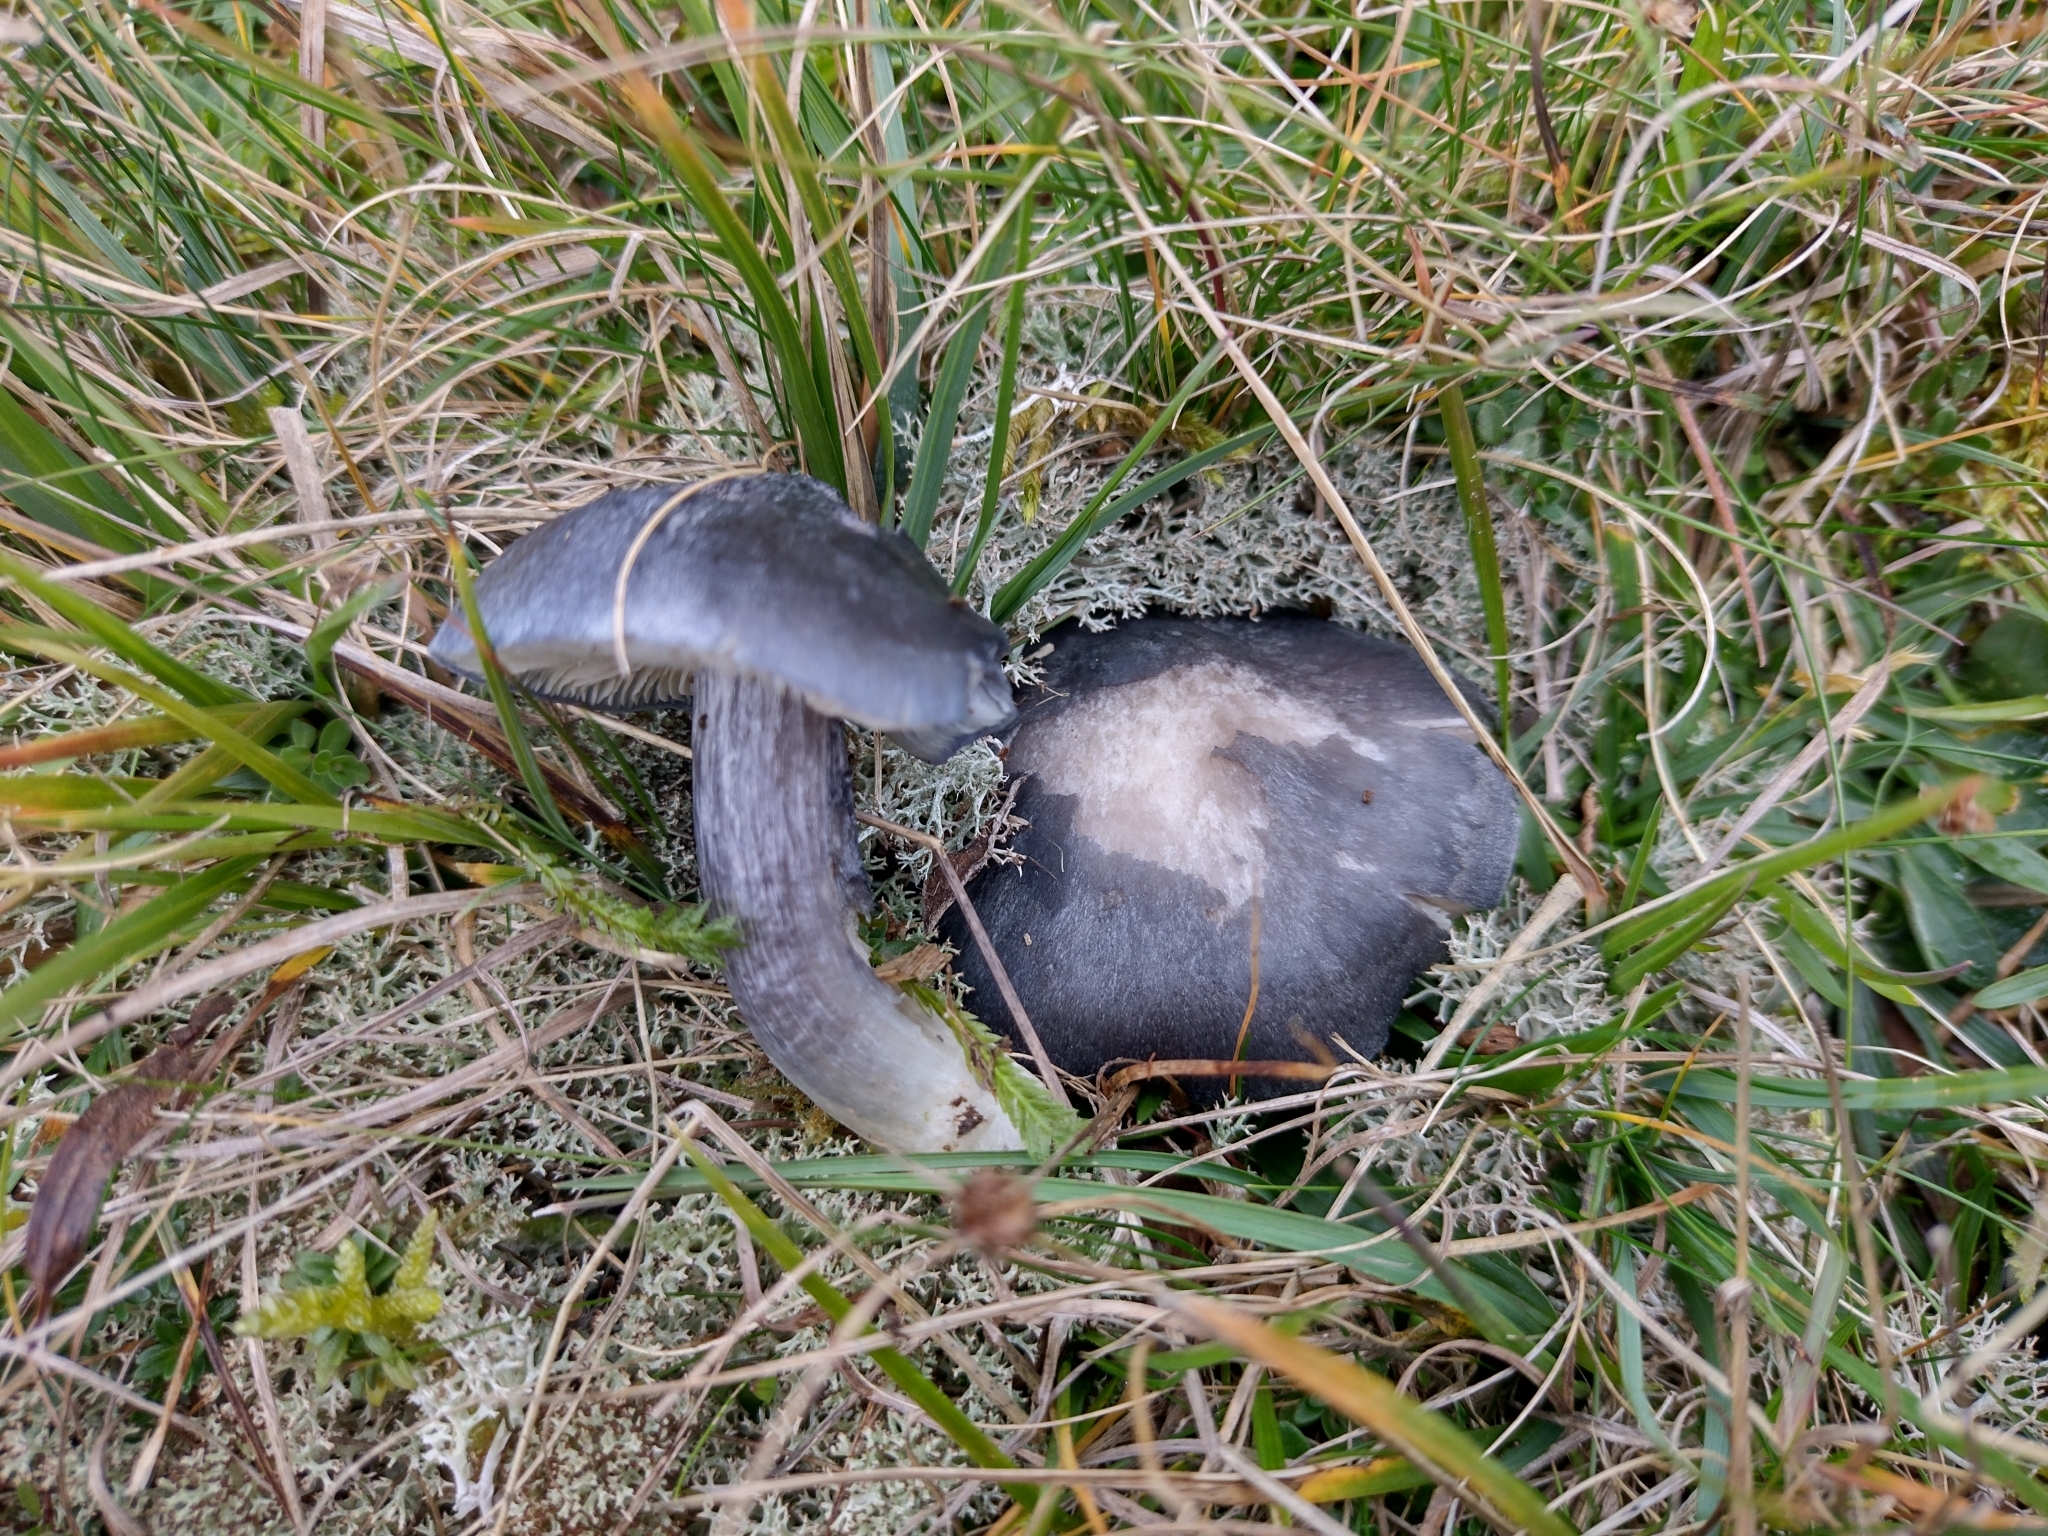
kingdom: Fungi
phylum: Basidiomycota
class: Agaricomycetes
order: Agaricales
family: Entolomataceae
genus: Entoloma
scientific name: Entoloma atromadidum
